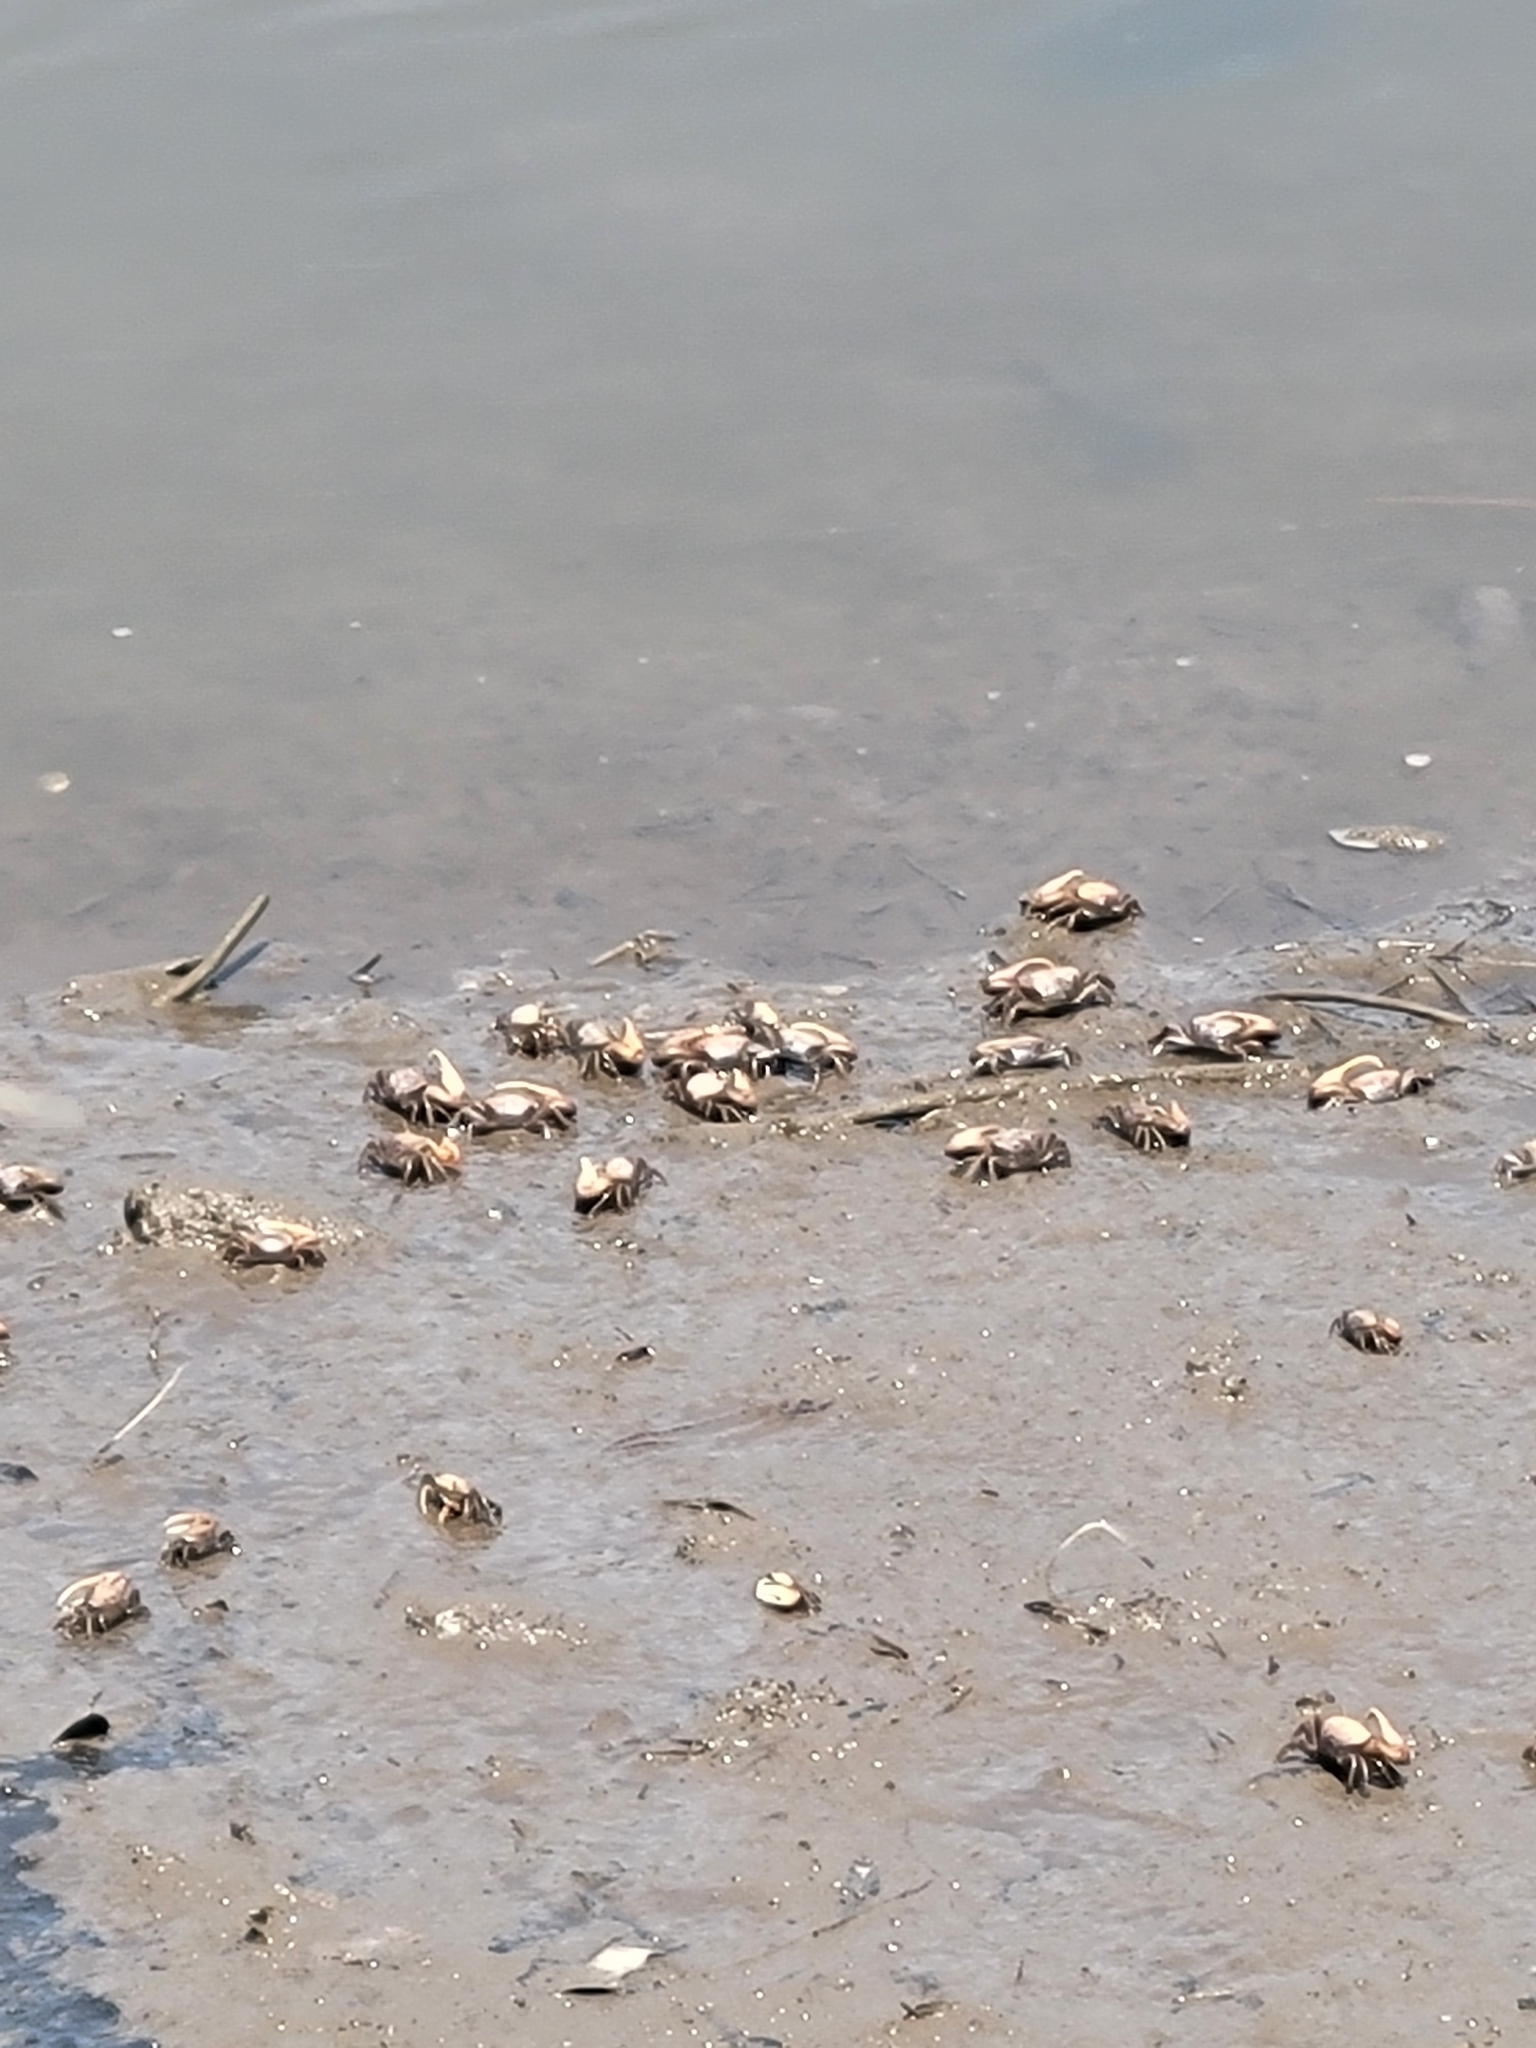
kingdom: Animalia
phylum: Arthropoda
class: Malacostraca
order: Decapoda
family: Ocypodidae
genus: Minuca
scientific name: Minuca minax
